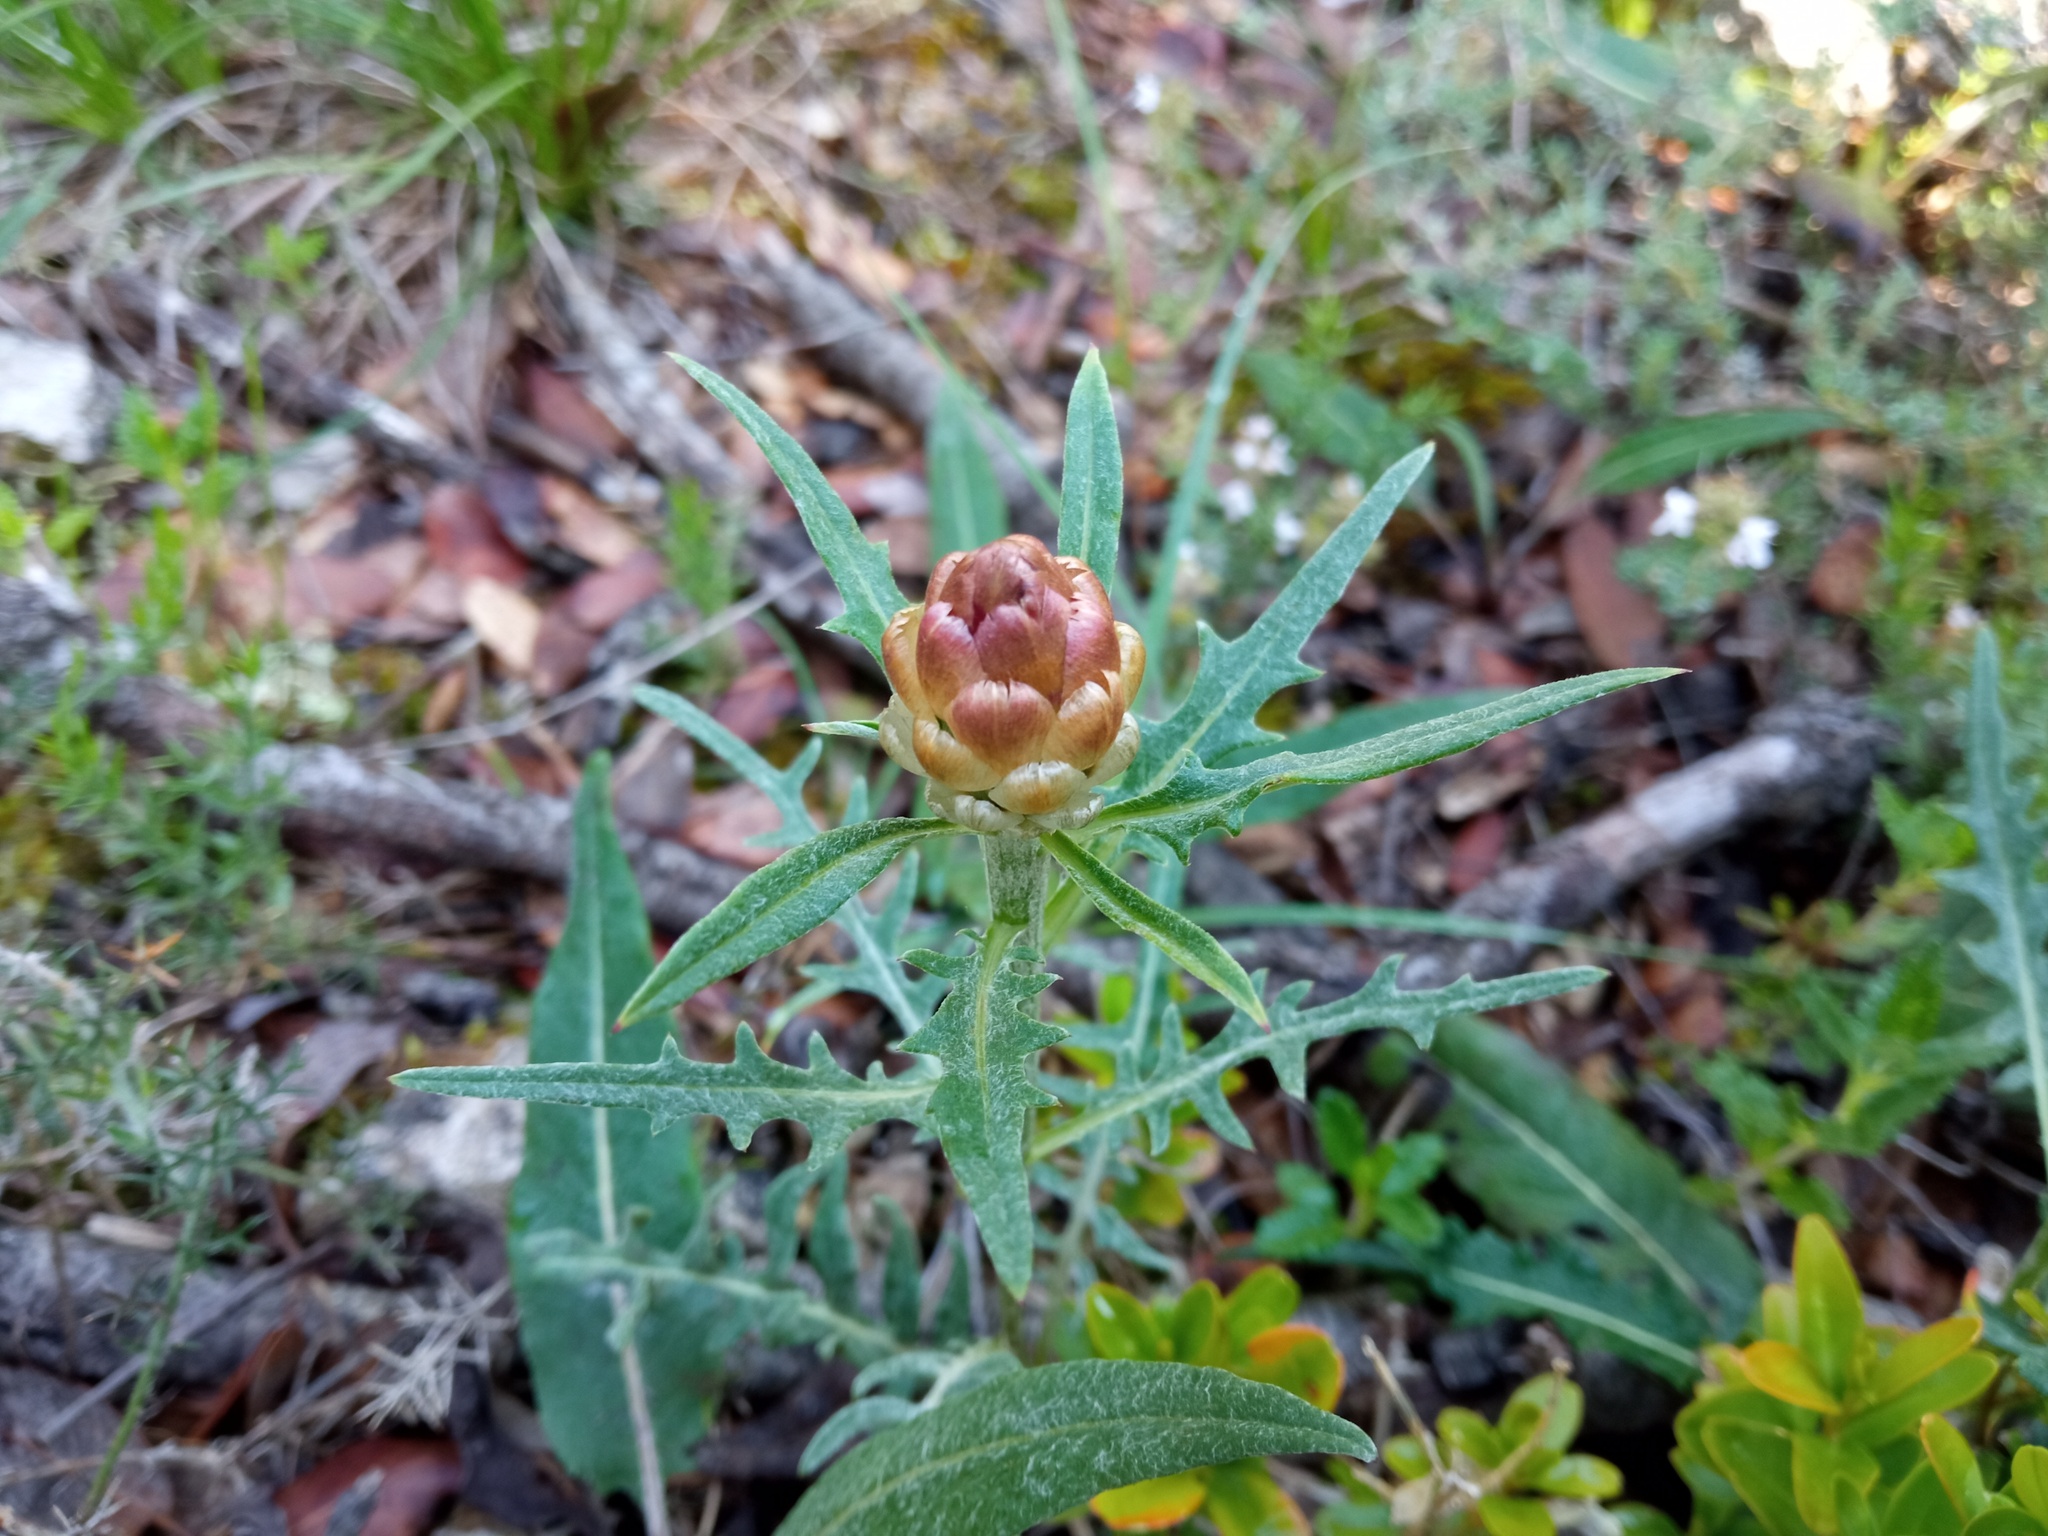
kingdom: Plantae
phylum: Tracheophyta
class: Magnoliopsida
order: Asterales
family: Asteraceae
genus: Leuzea
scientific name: Leuzea conifera
